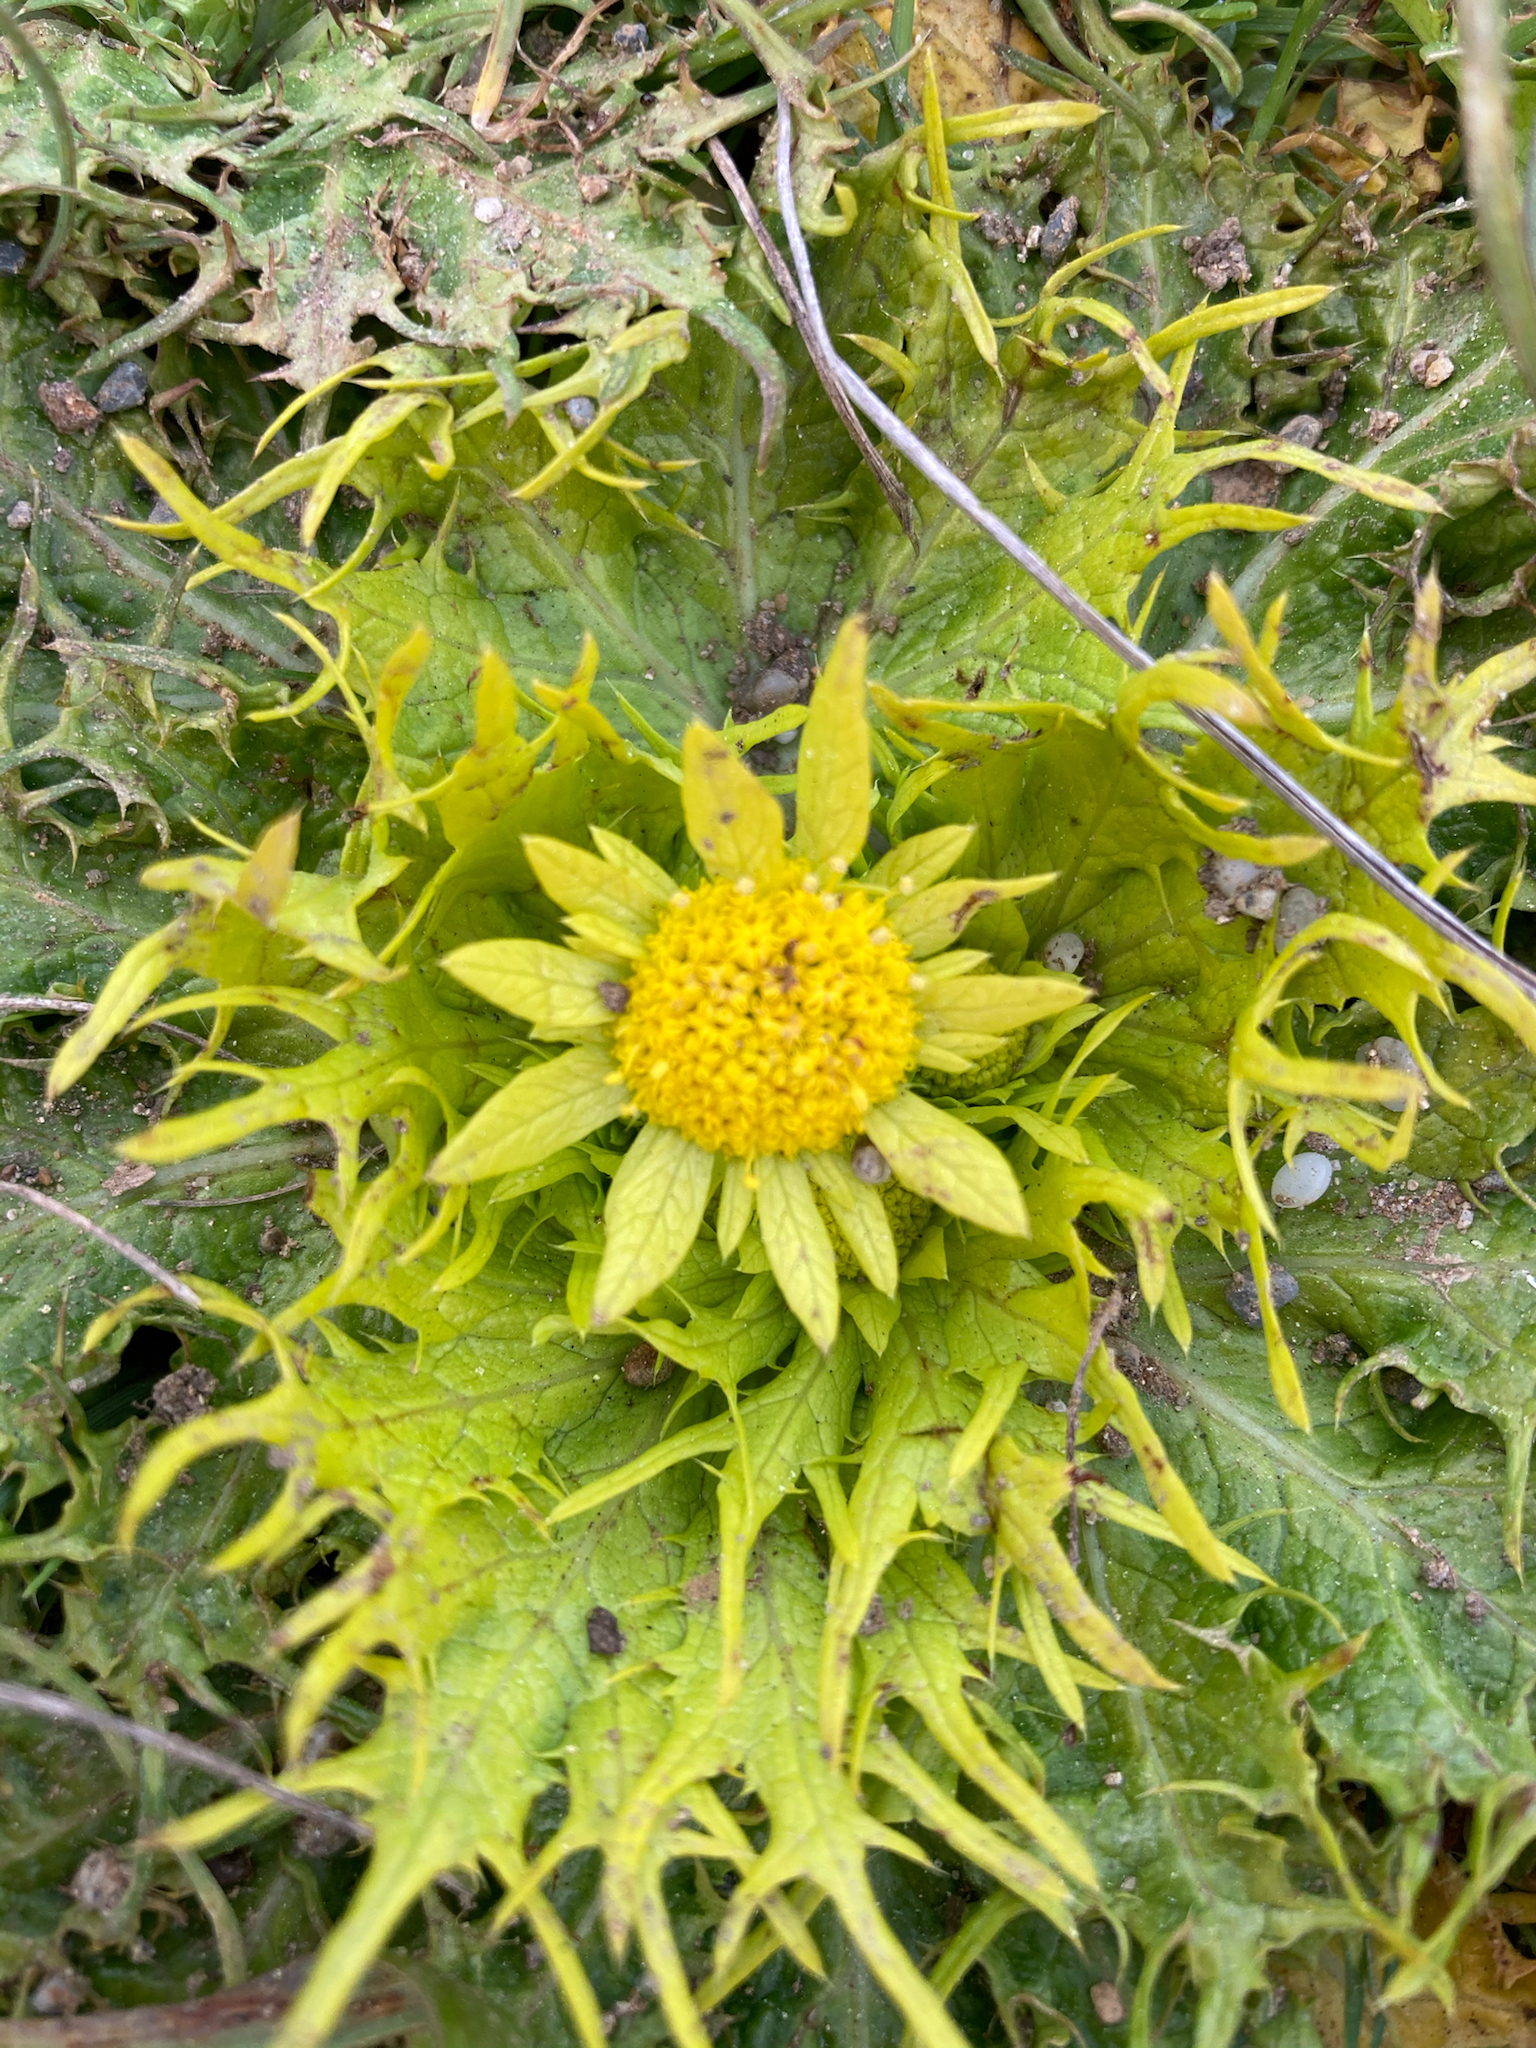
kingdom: Plantae
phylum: Tracheophyta
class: Magnoliopsida
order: Apiales
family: Apiaceae
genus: Sanicula
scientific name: Sanicula arctopoides
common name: Footsteps-of-spring
